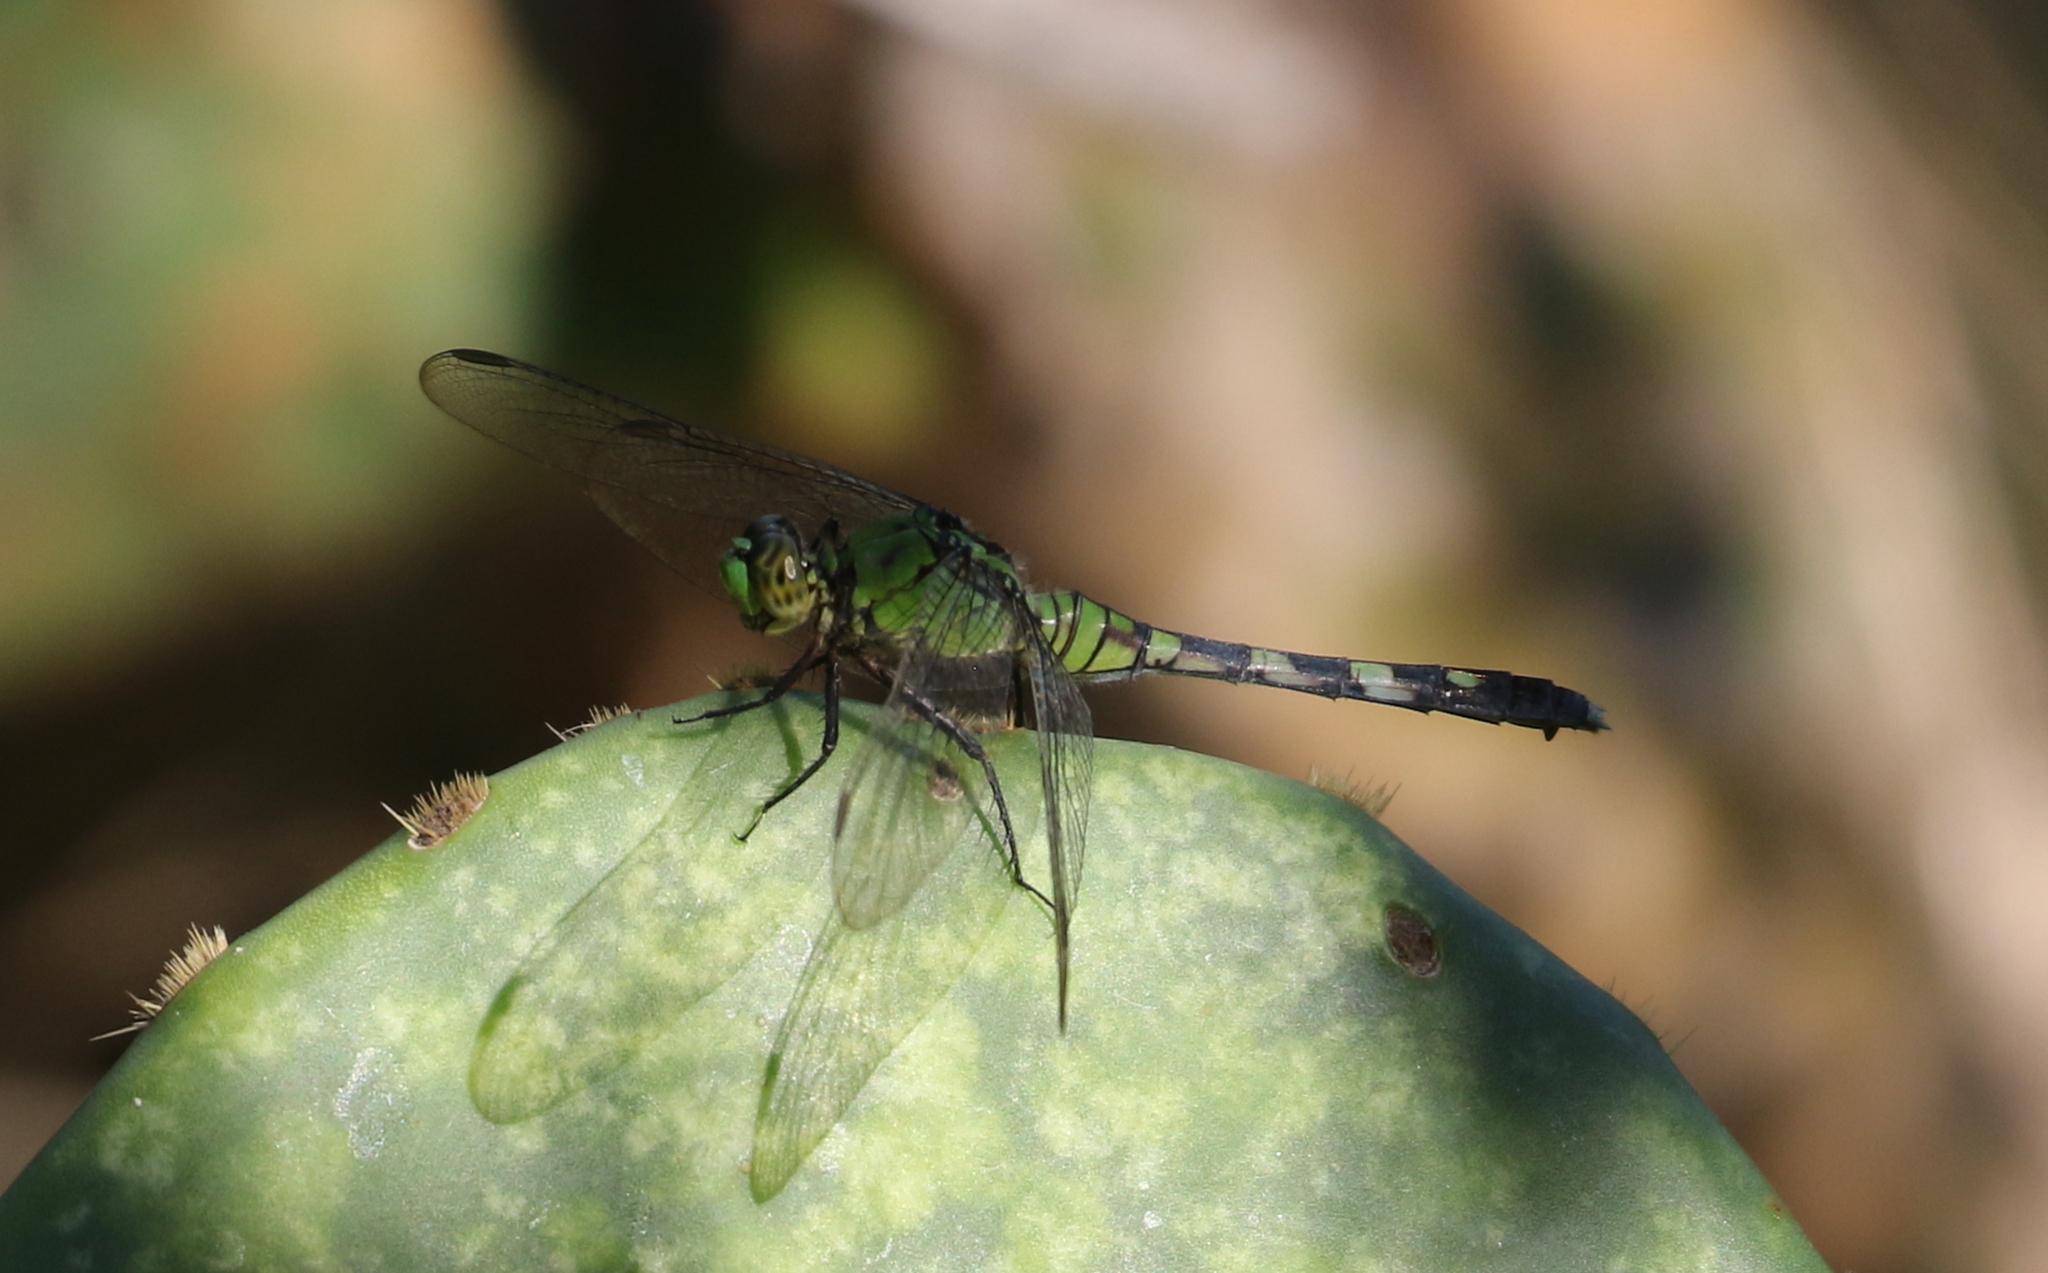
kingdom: Animalia
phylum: Arthropoda
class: Insecta
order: Odonata
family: Libellulidae
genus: Erythemis
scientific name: Erythemis simplicicollis
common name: Eastern pondhawk
